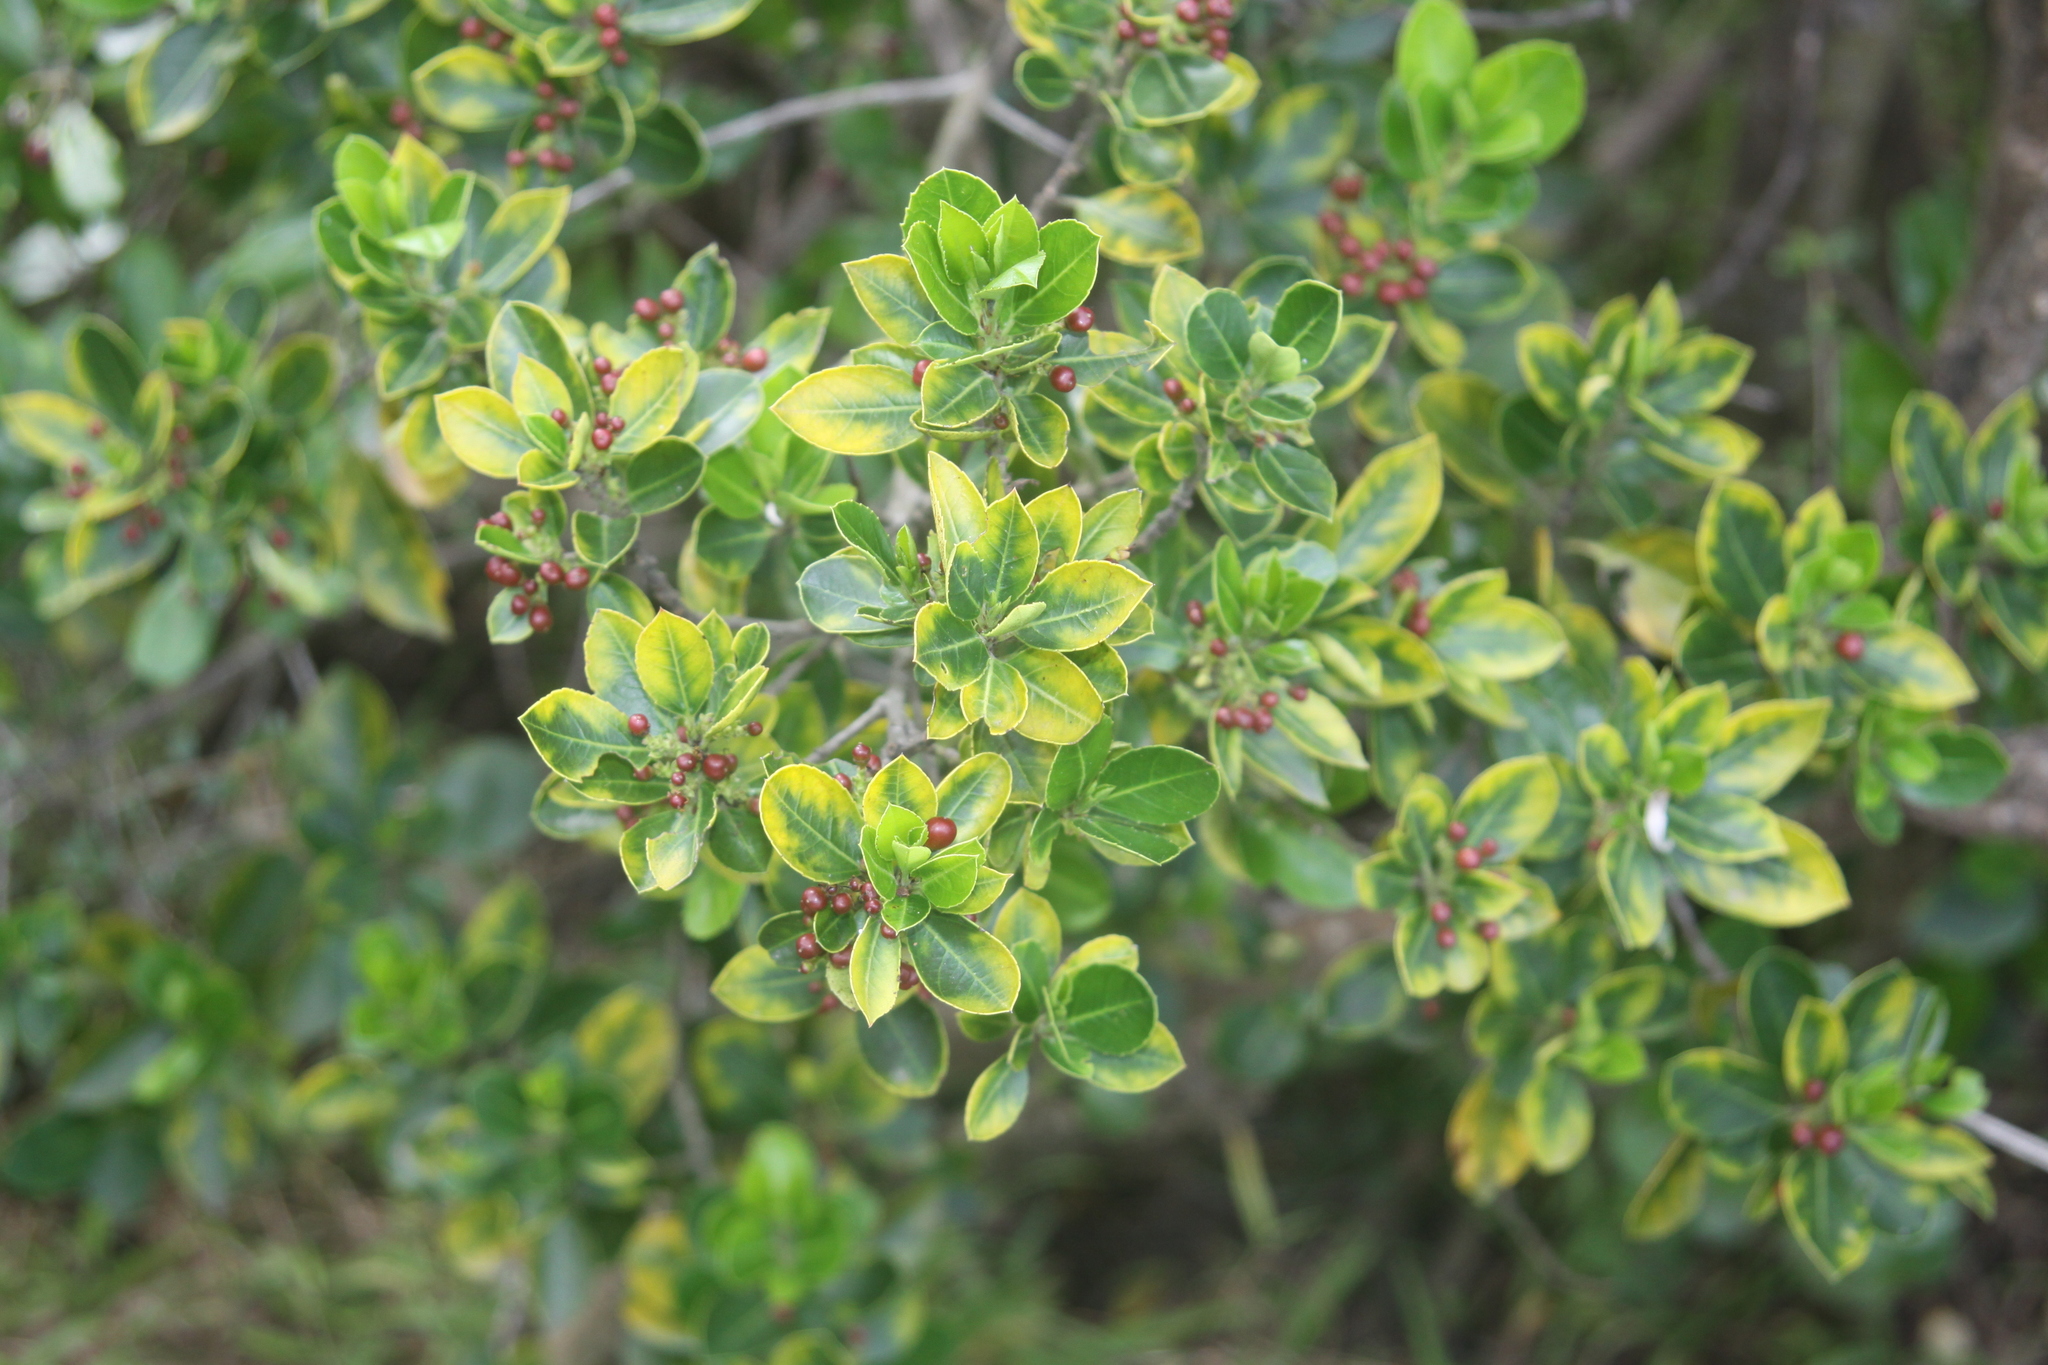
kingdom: Plantae
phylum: Tracheophyta
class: Magnoliopsida
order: Rosales
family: Rhamnaceae
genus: Rhamnus
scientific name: Rhamnus alaternus
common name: Mediterranean buckthorn
